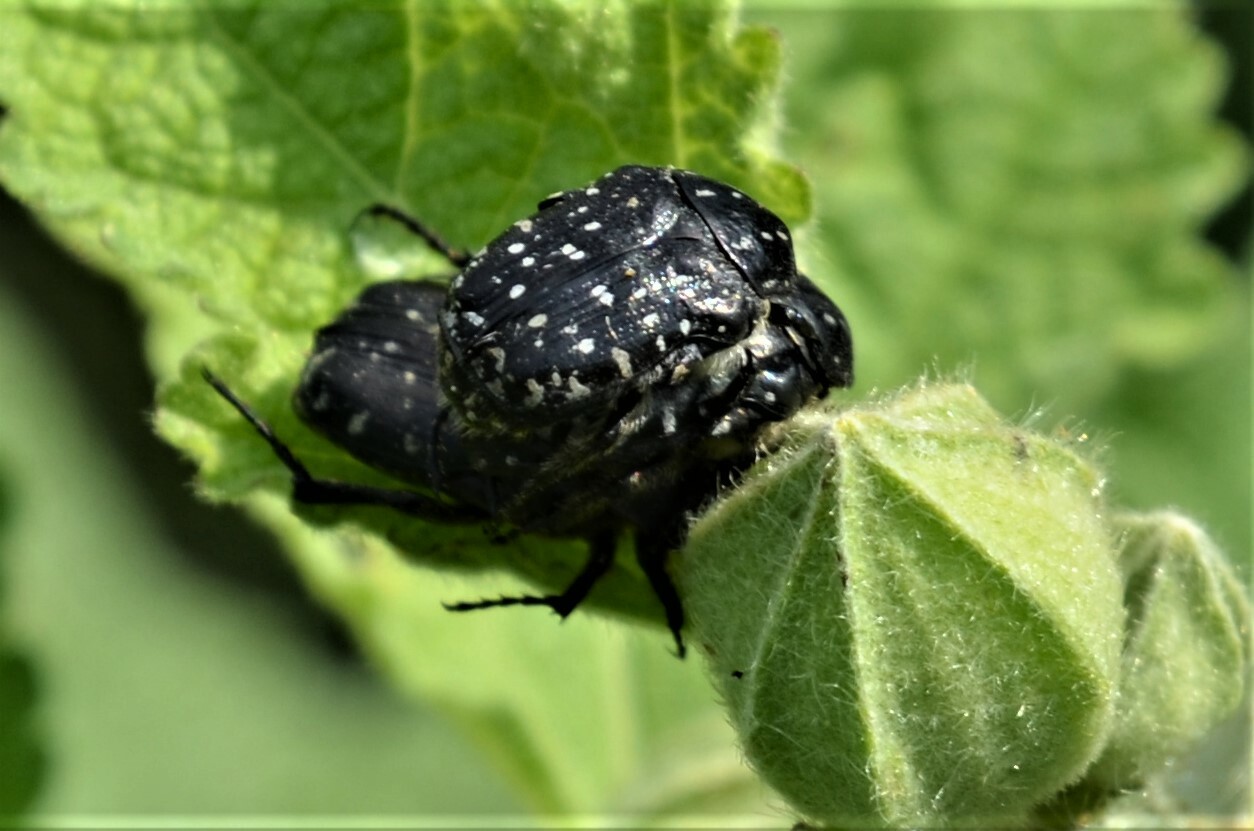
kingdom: Animalia
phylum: Arthropoda
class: Insecta
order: Coleoptera
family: Scarabaeidae
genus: Oxythyrea
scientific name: Oxythyrea funesta
